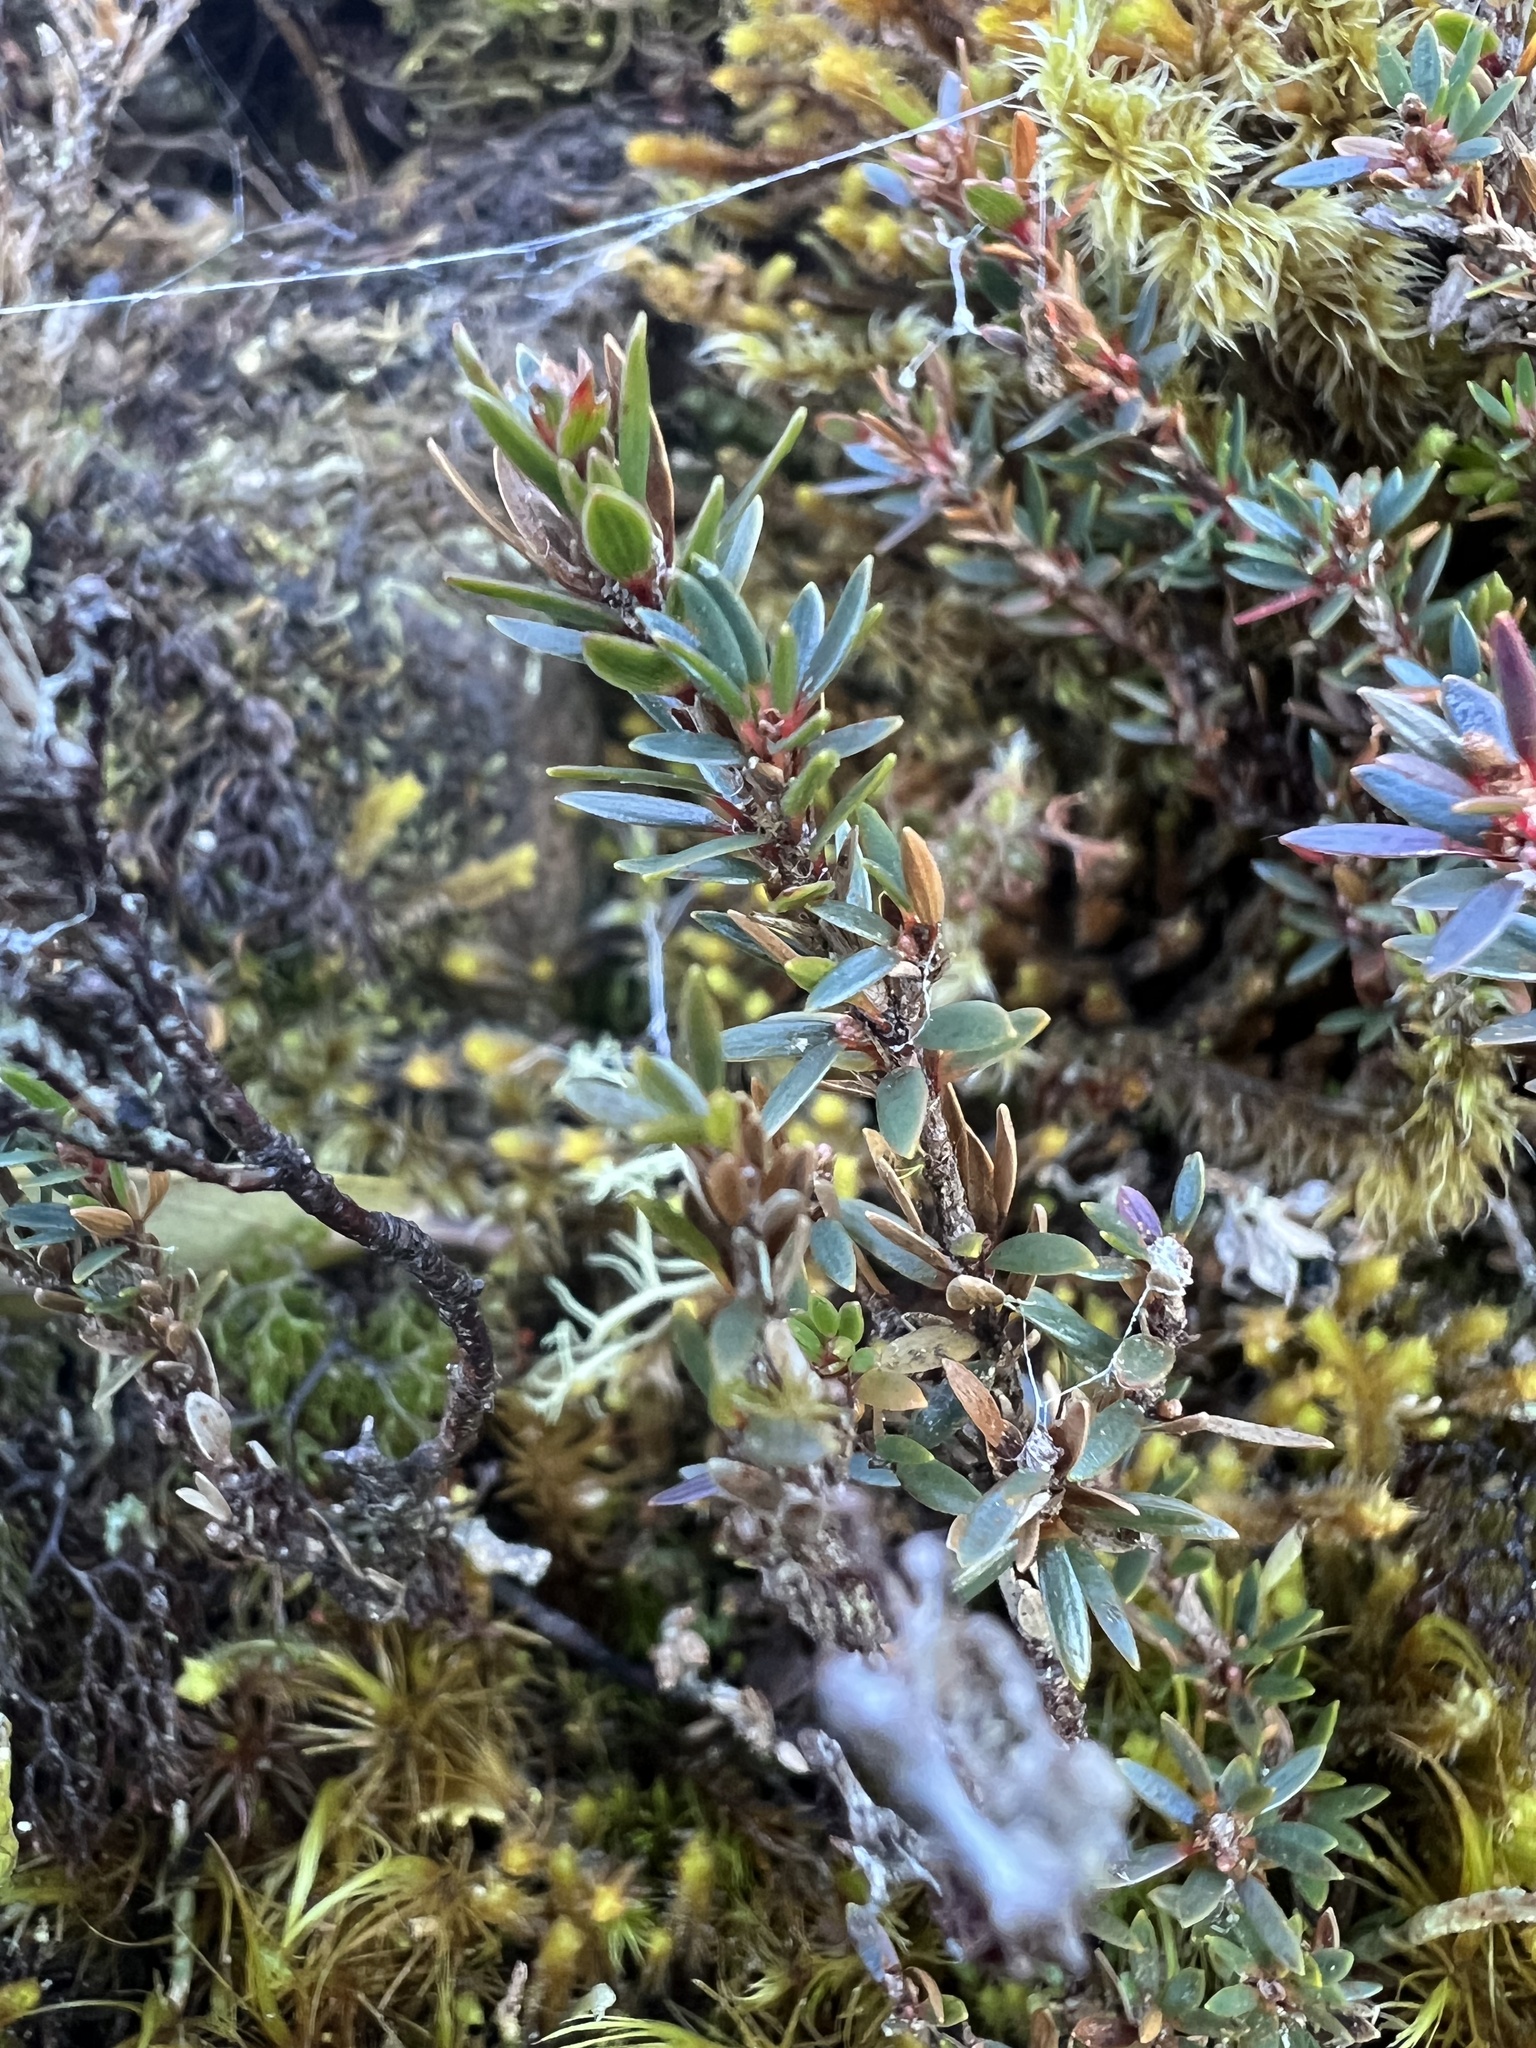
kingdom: Plantae
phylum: Tracheophyta
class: Magnoliopsida
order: Ericales
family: Ericaceae
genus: Pentachondra
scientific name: Pentachondra pumila
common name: Carpet-heath
